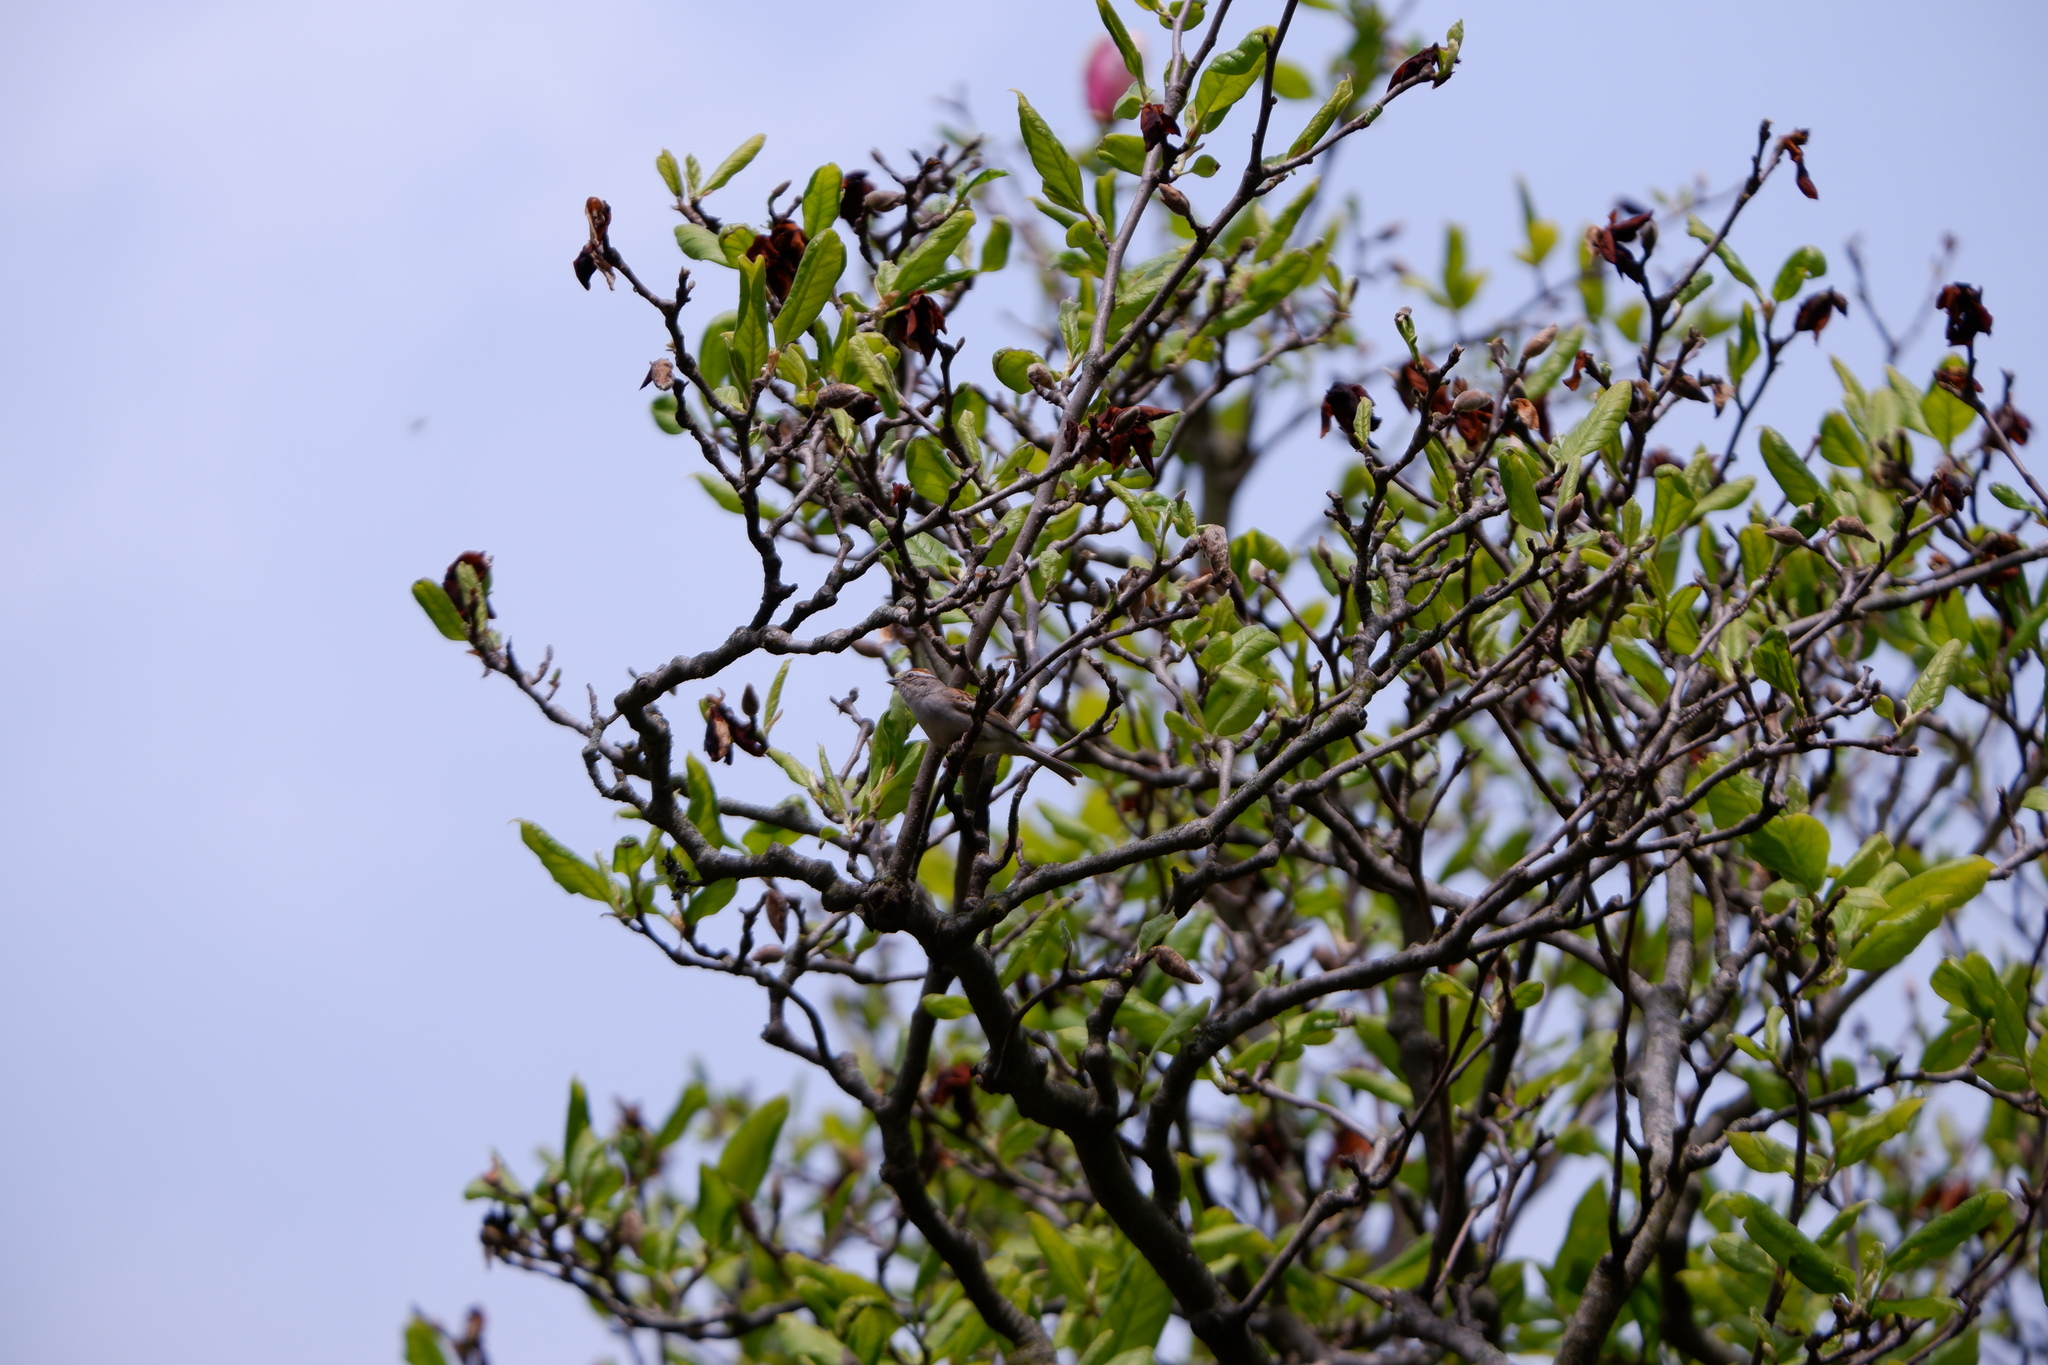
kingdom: Animalia
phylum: Chordata
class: Aves
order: Passeriformes
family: Passerellidae
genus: Spizella
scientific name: Spizella passerina
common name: Chipping sparrow
